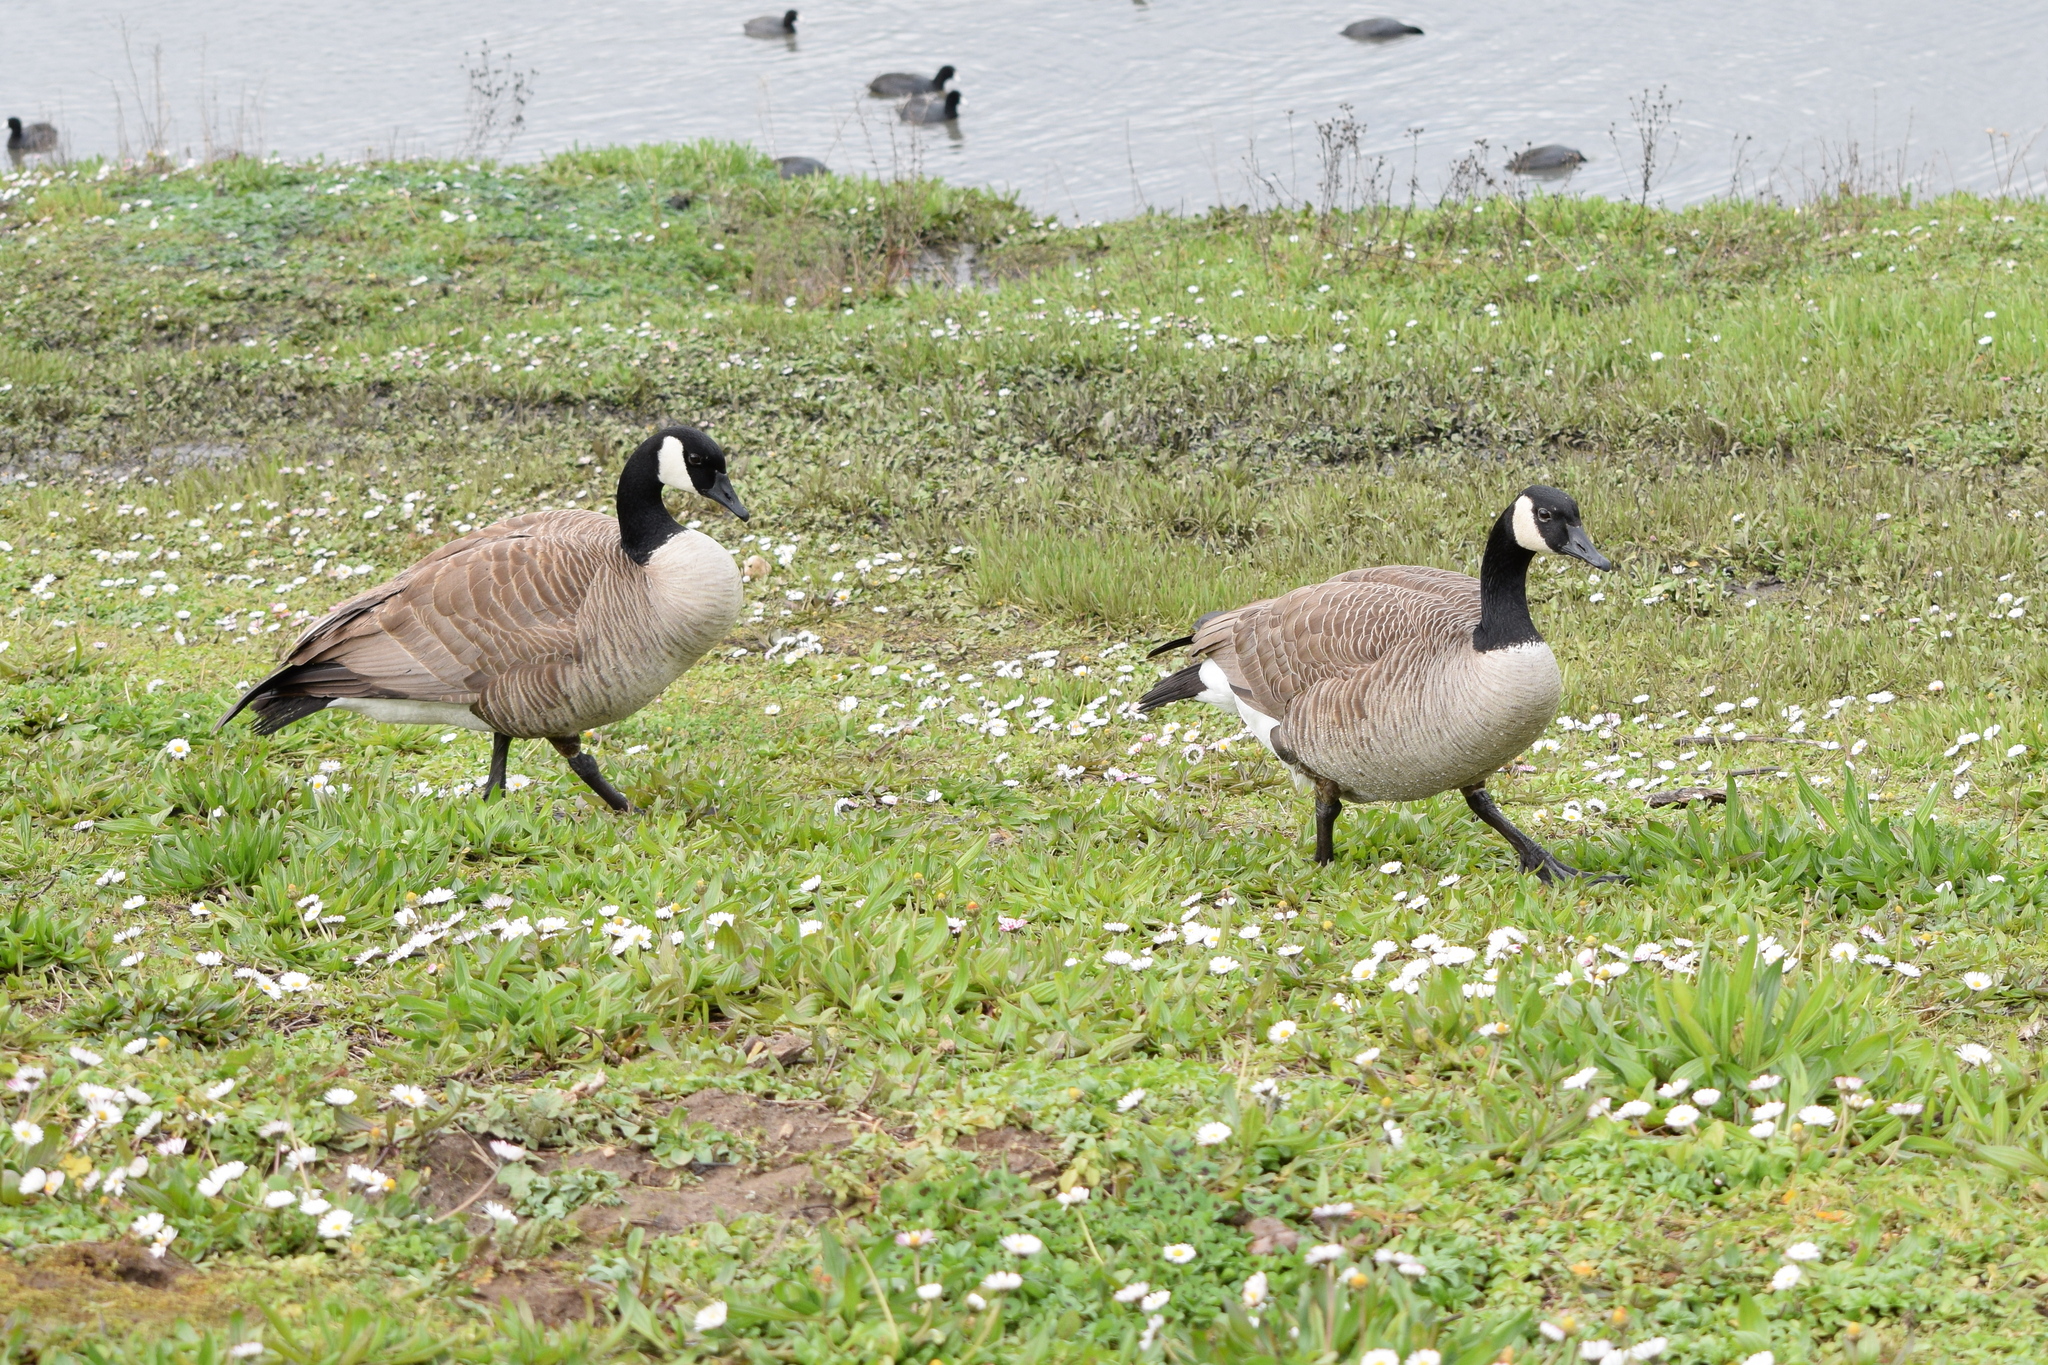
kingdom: Animalia
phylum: Chordata
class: Aves
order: Anseriformes
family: Anatidae
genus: Branta
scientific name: Branta canadensis
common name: Canada goose
